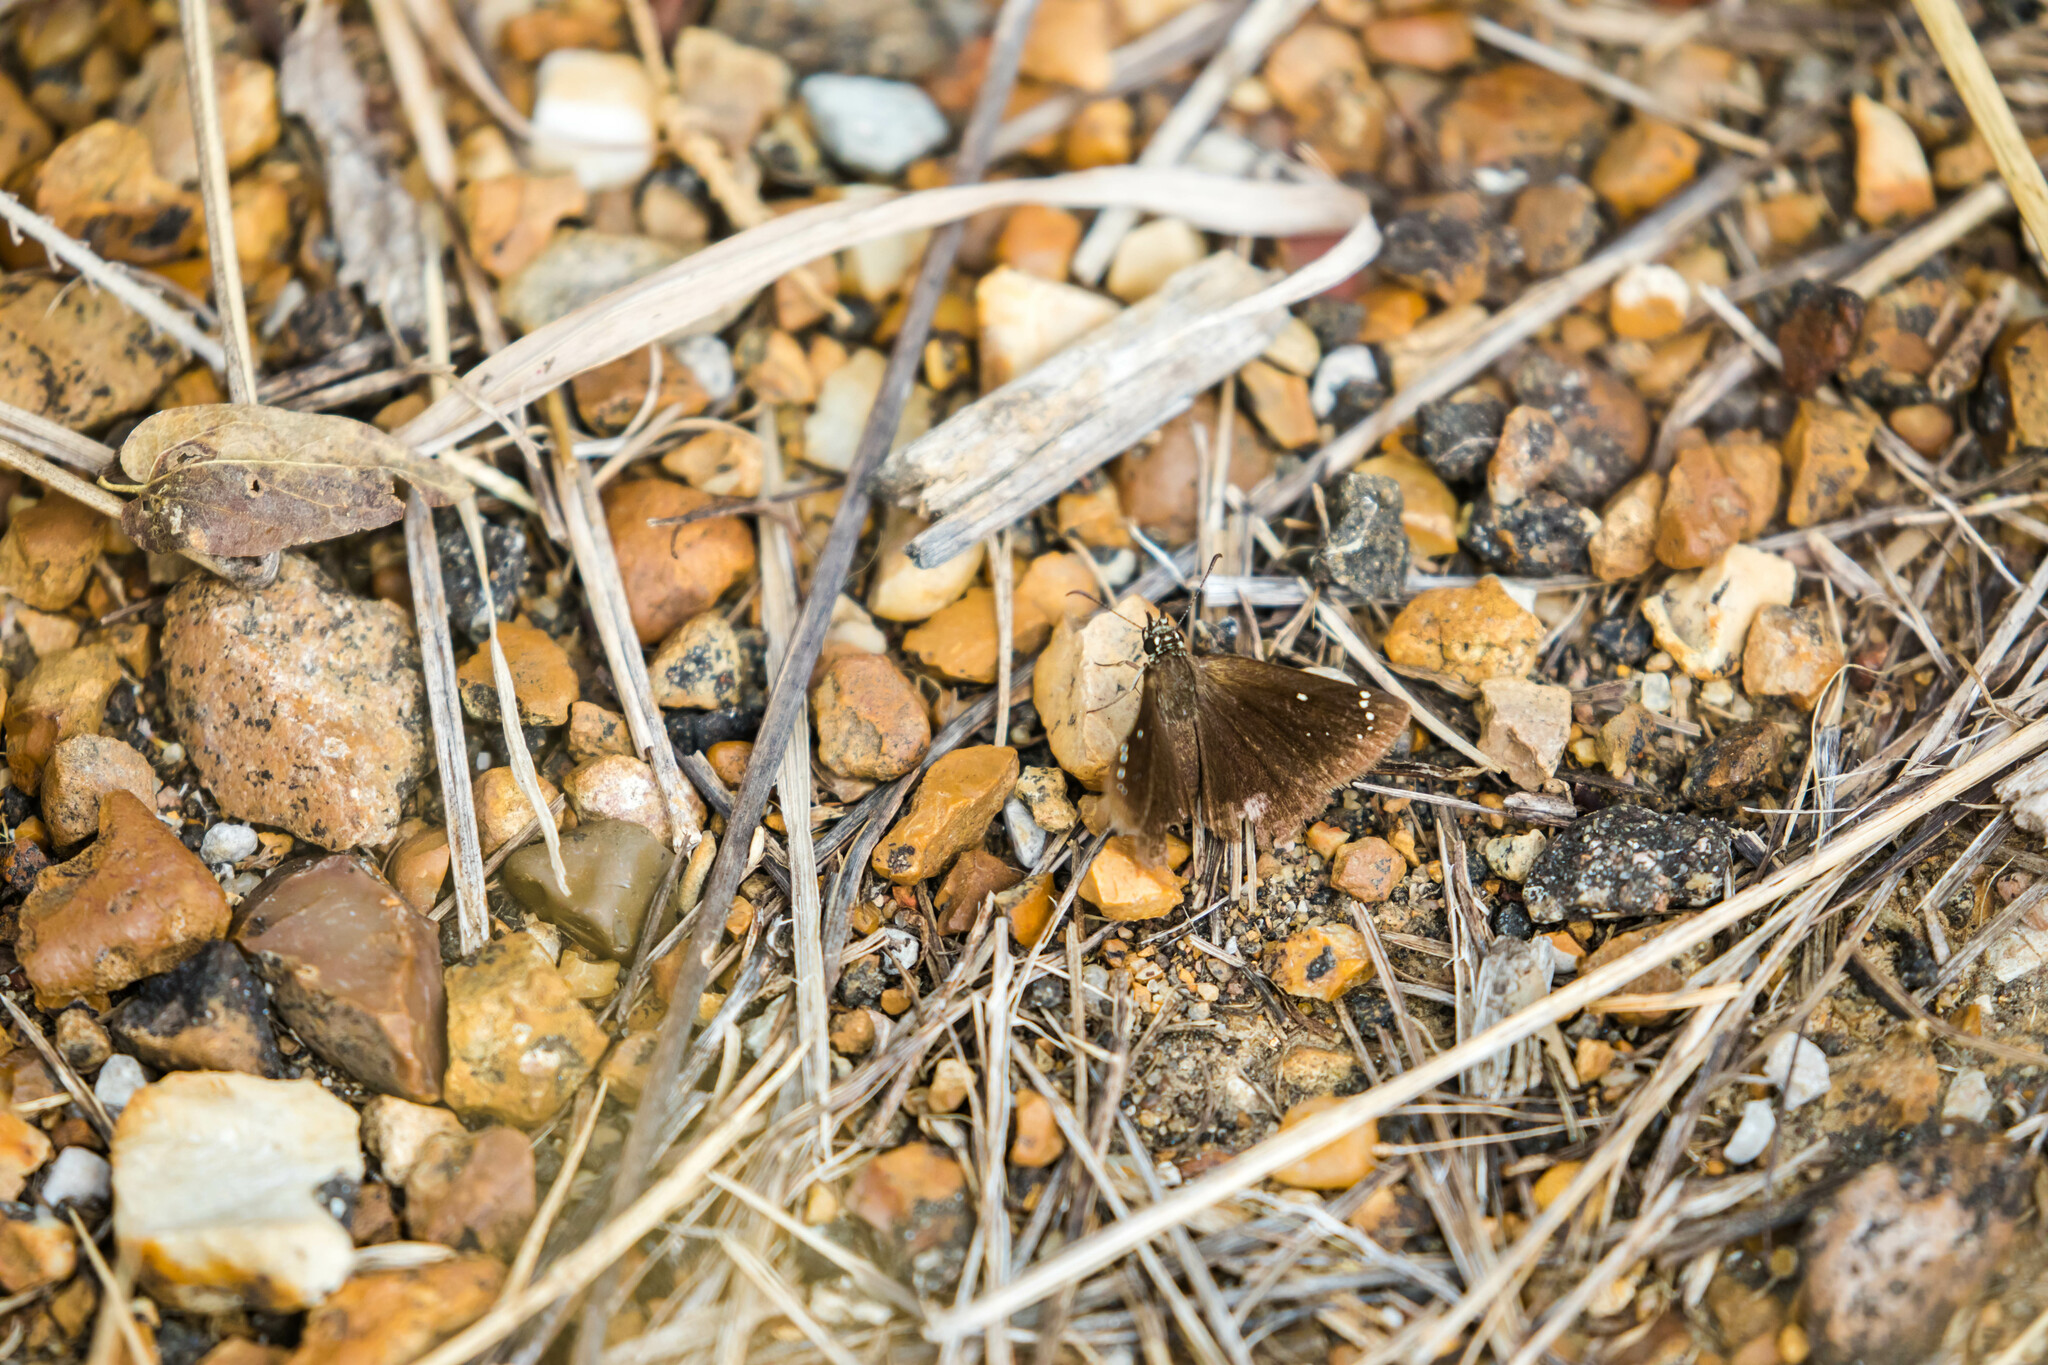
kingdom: Animalia
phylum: Arthropoda
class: Insecta
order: Lepidoptera
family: Hesperiidae
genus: Pholisora
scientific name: Pholisora catullus
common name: Common sootywing
